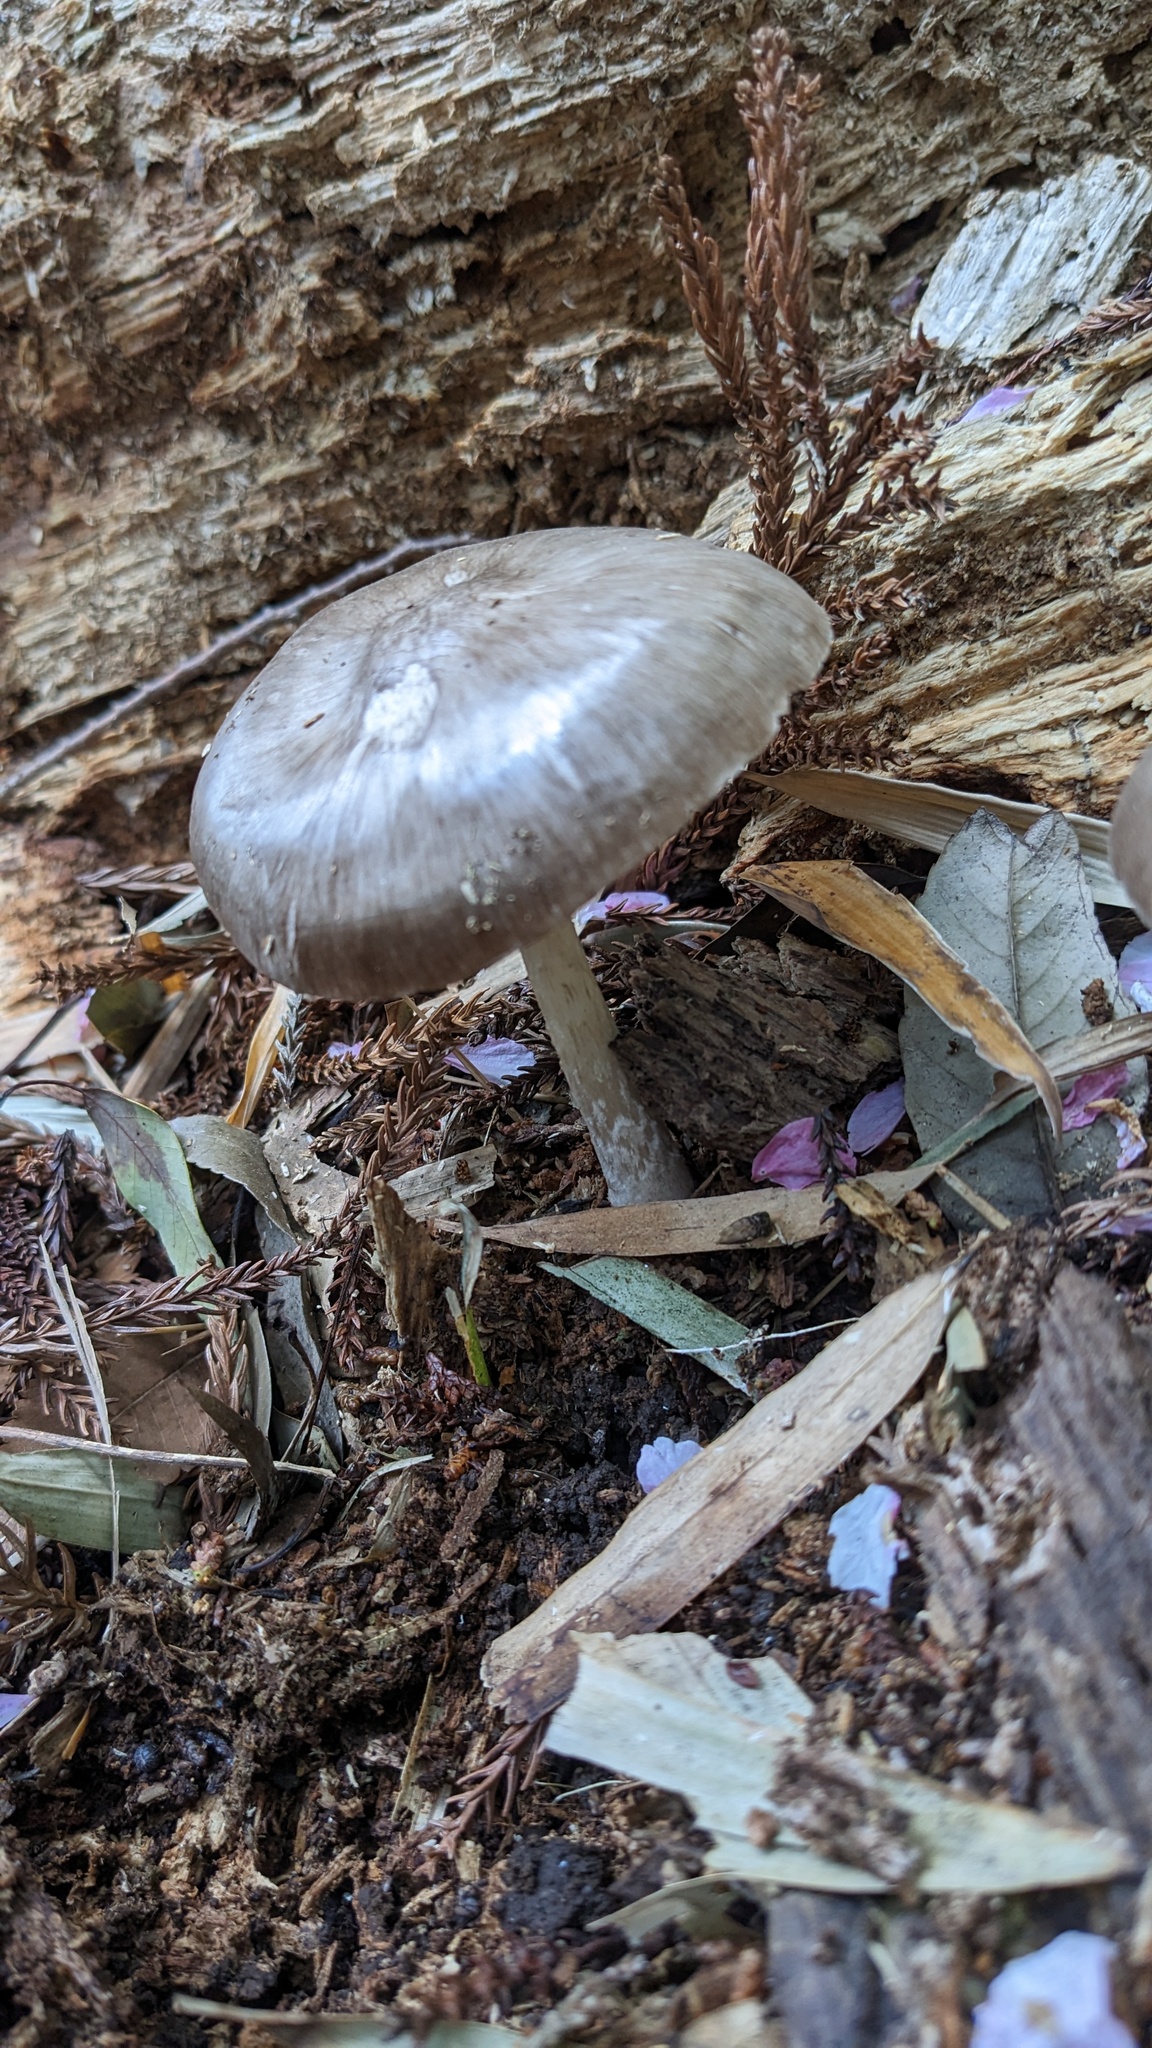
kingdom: Fungi
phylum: Basidiomycota
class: Agaricomycetes
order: Agaricales
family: Pluteaceae
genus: Pluteus
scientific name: Pluteus cervinus
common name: Deer shield
